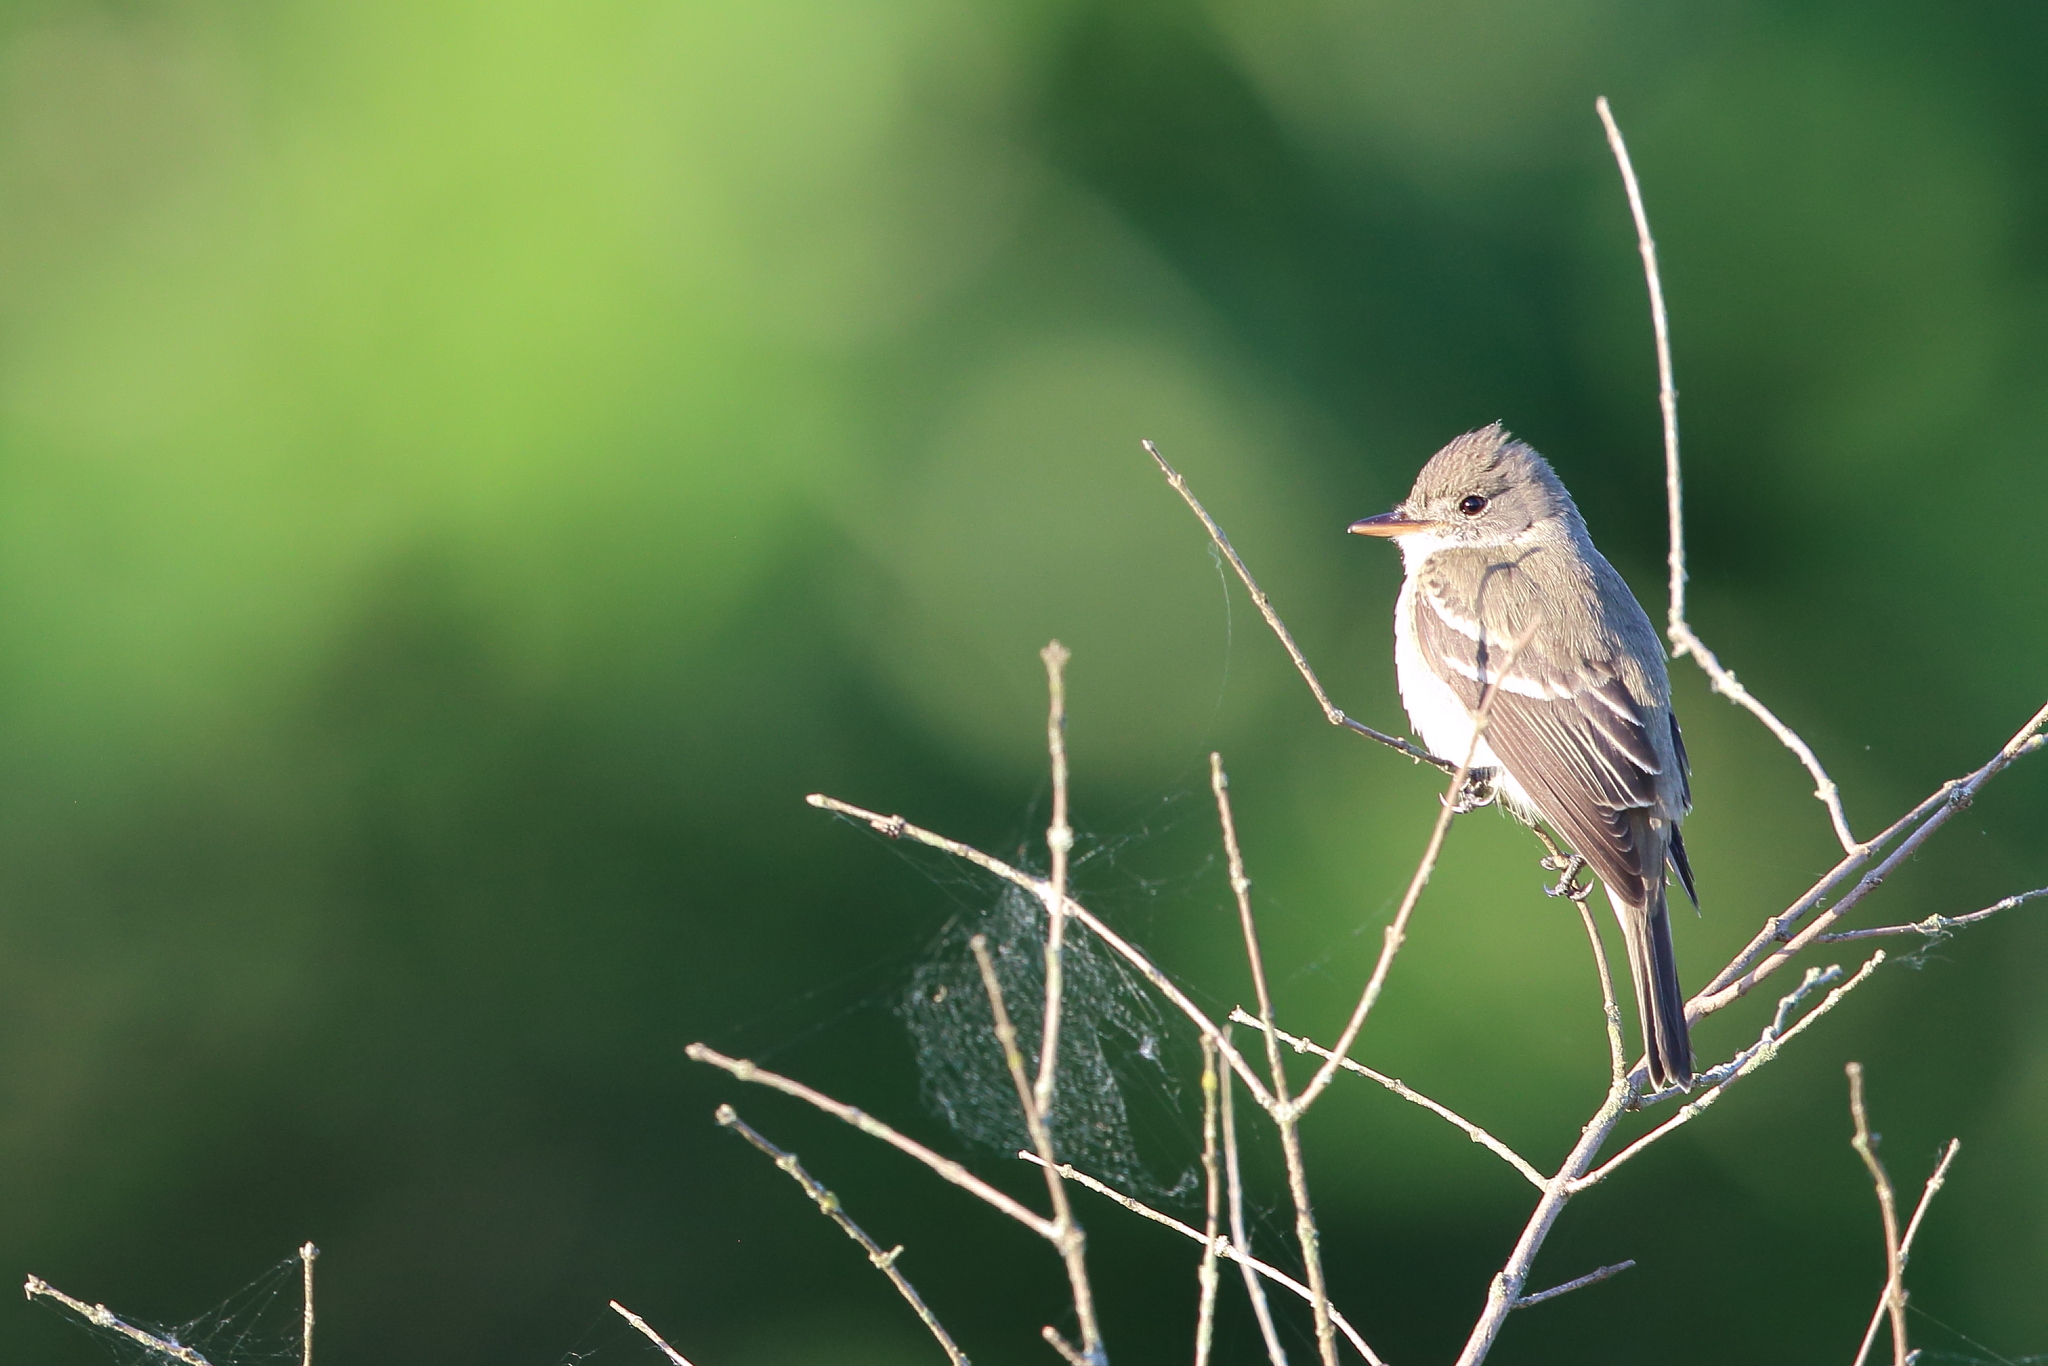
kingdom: Animalia
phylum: Chordata
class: Aves
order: Passeriformes
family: Tyrannidae
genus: Empidonax
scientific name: Empidonax traillii
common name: Willow flycatcher
